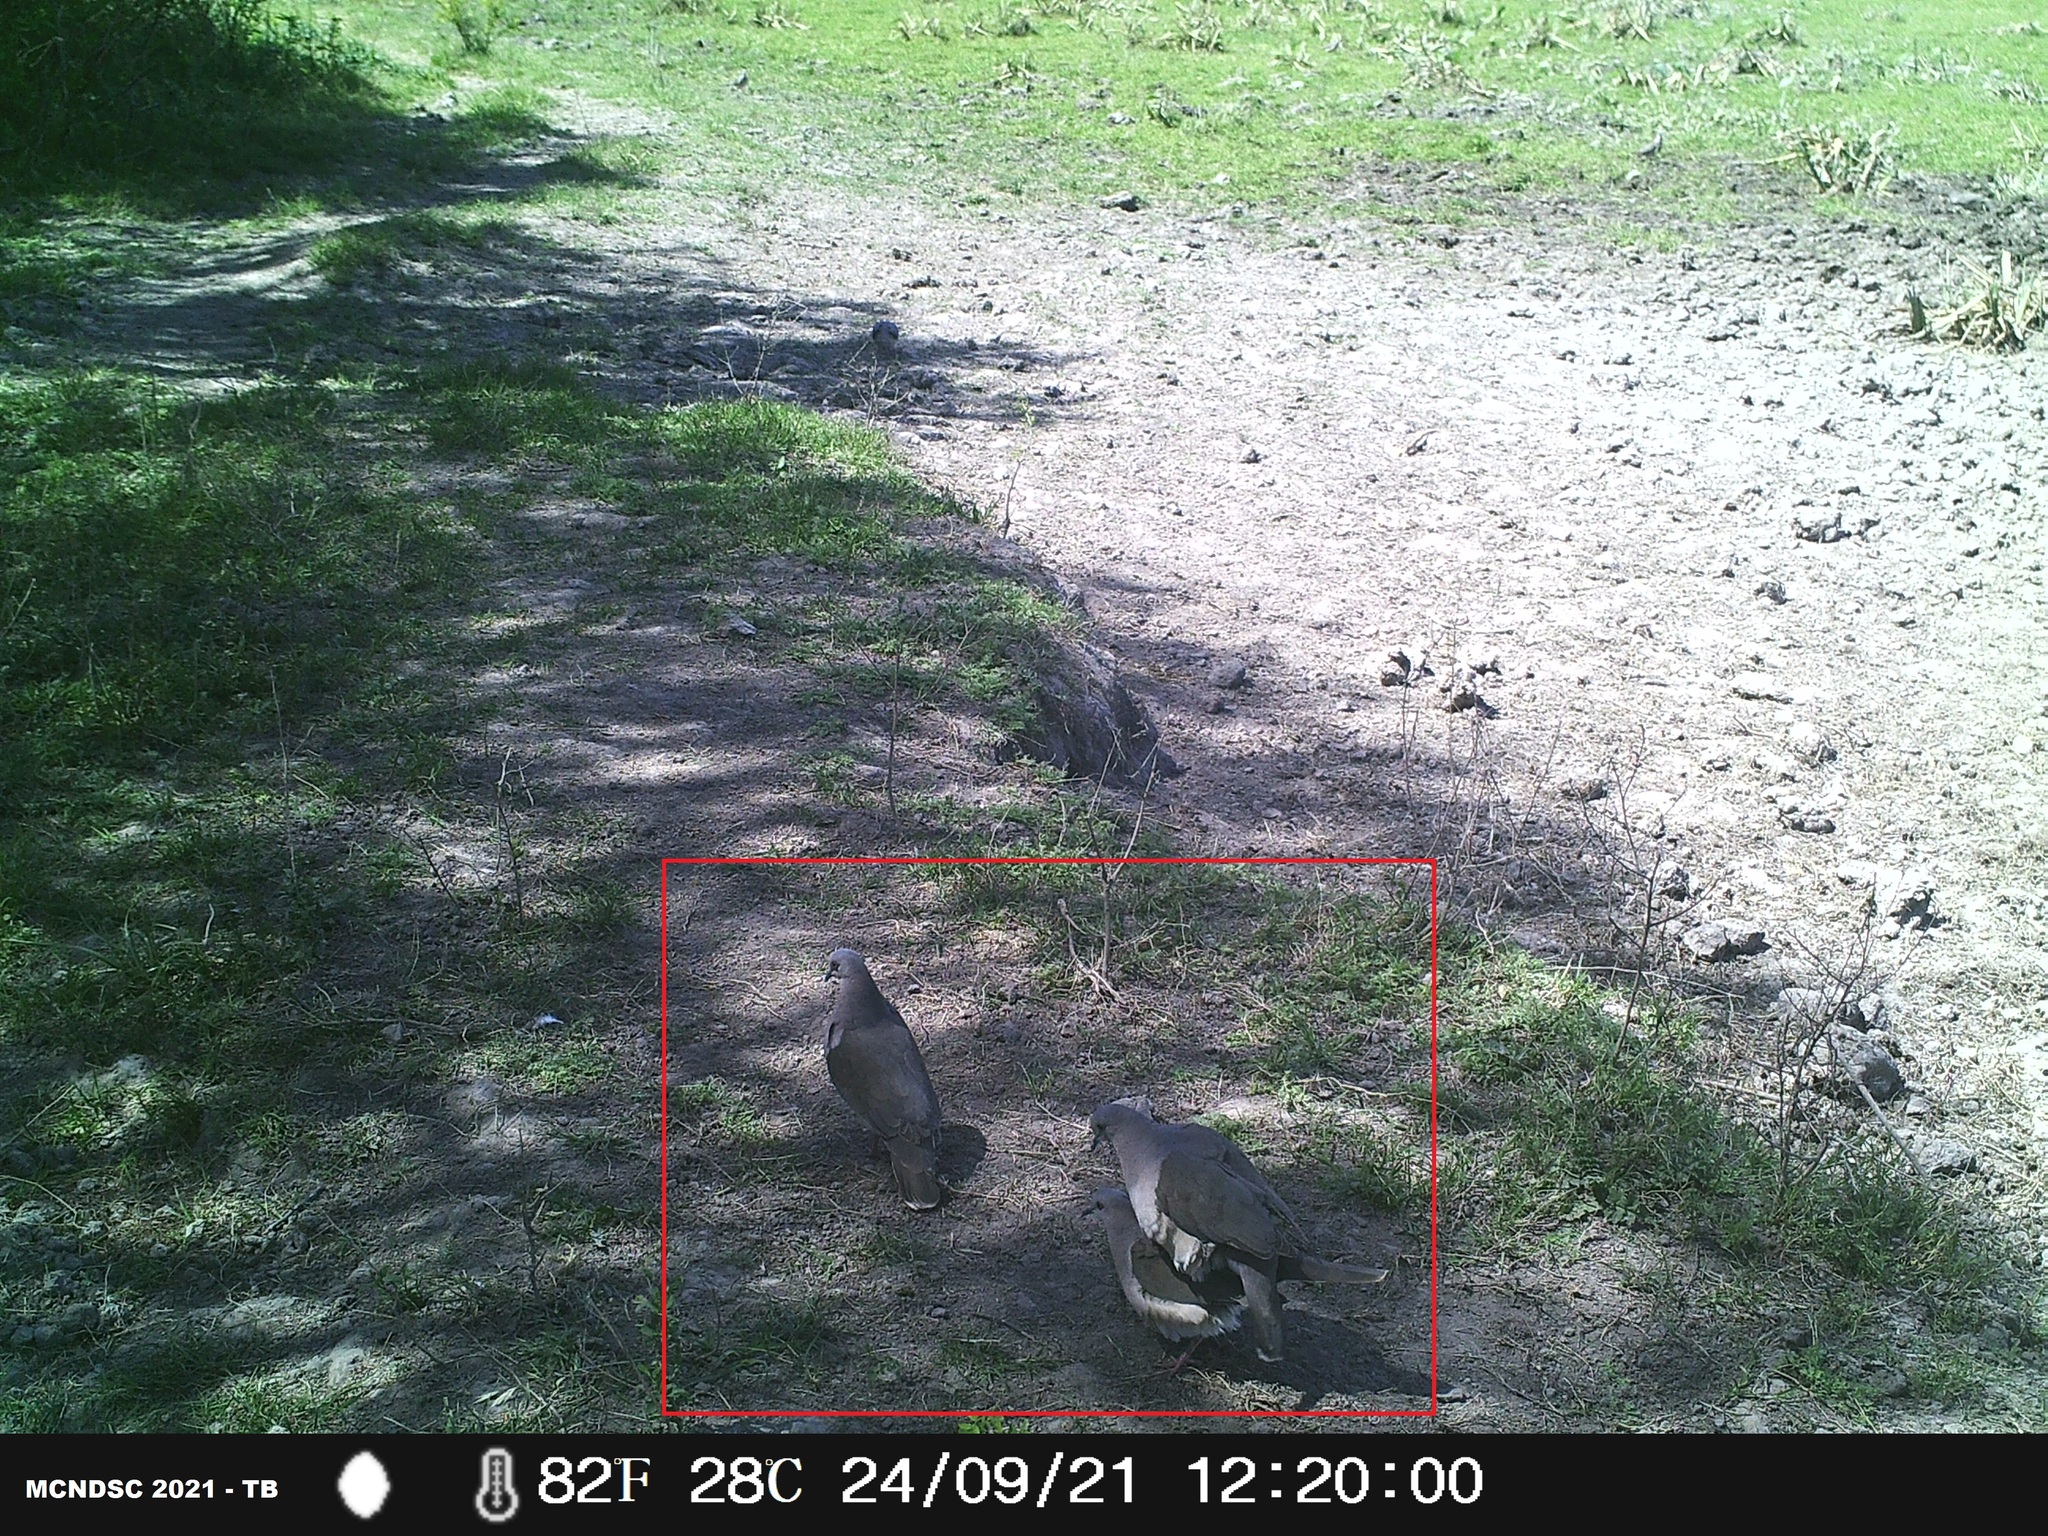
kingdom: Animalia
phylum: Chordata
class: Aves
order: Columbiformes
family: Columbidae
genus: Leptotila
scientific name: Leptotila verreauxi
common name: White-tipped dove
